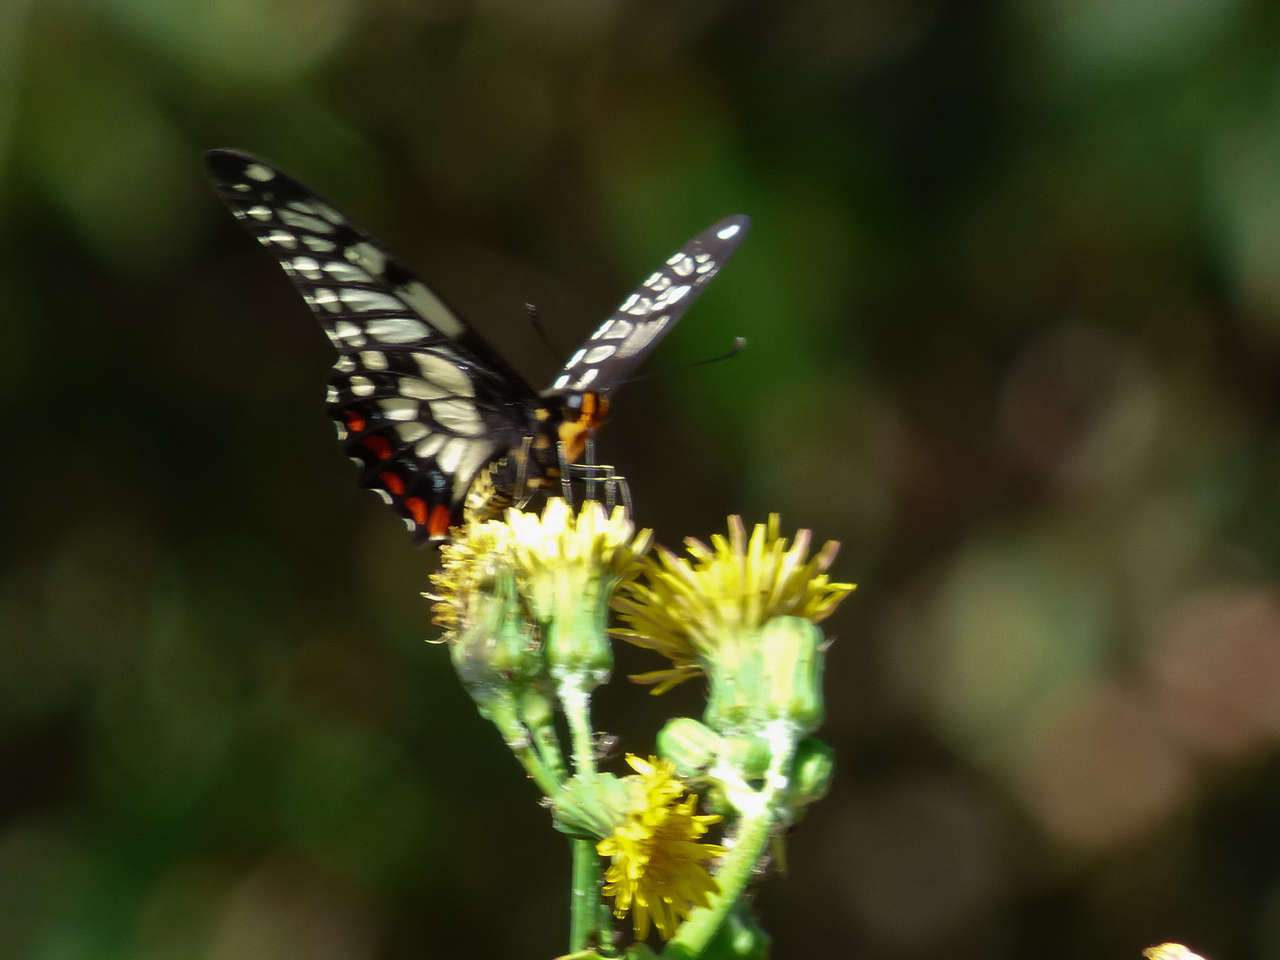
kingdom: Animalia
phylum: Arthropoda
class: Insecta
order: Lepidoptera
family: Papilionidae
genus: Papilio
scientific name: Papilio anactus
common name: Dingy swallowtail
